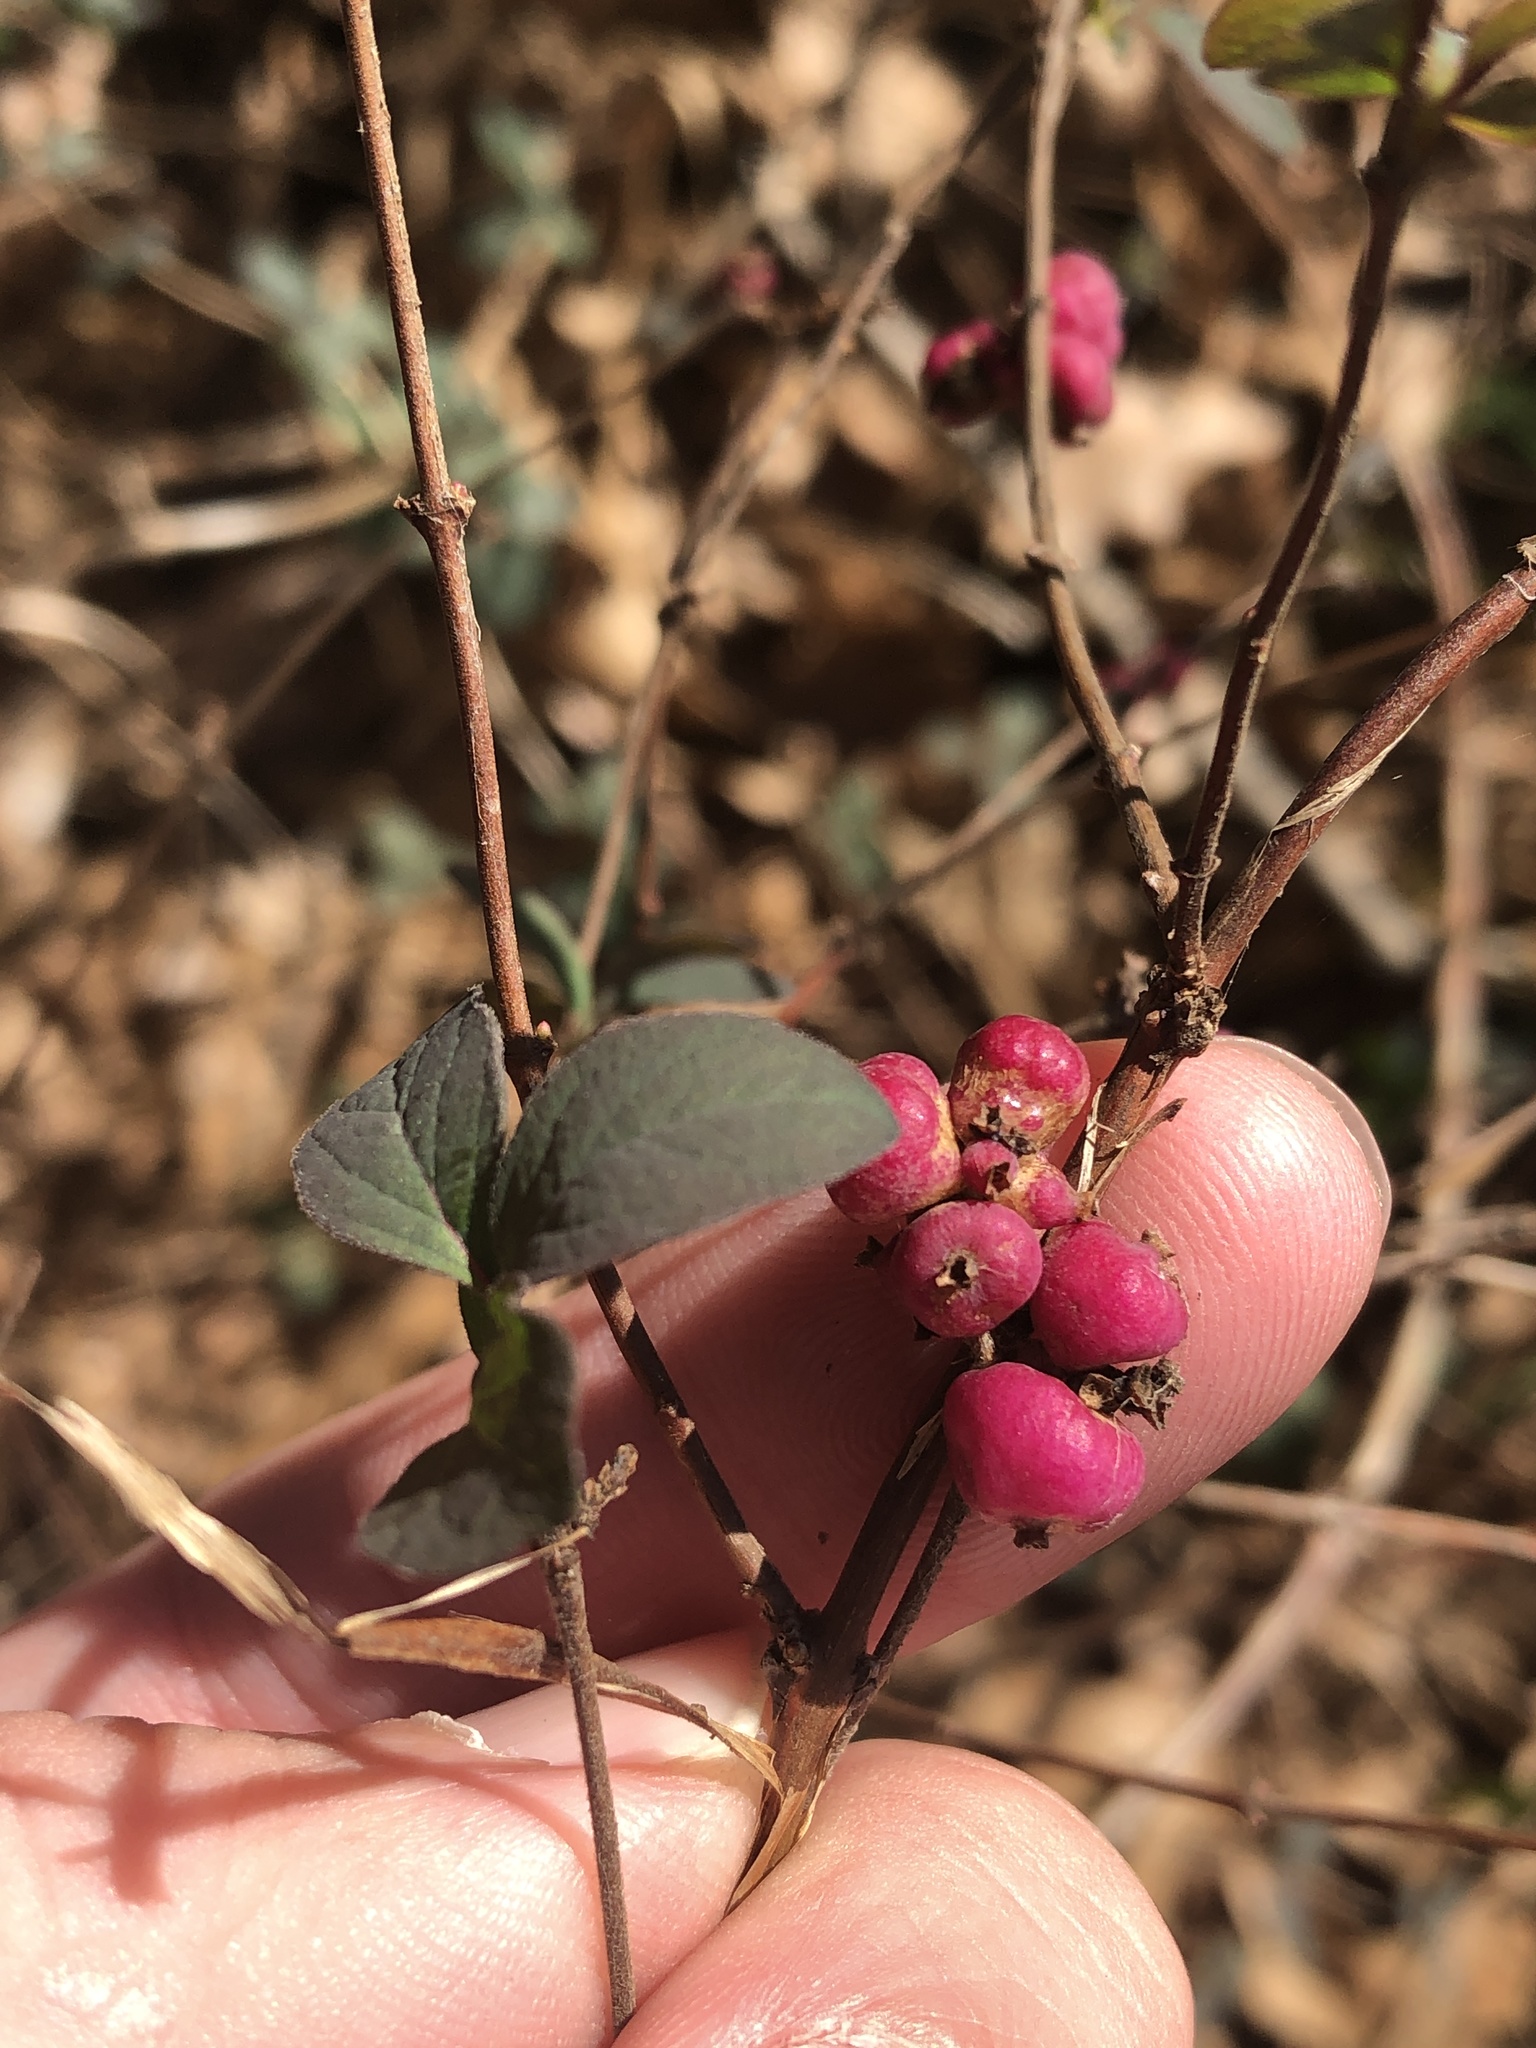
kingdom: Plantae
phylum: Tracheophyta
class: Magnoliopsida
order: Dipsacales
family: Caprifoliaceae
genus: Symphoricarpos
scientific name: Symphoricarpos orbiculatus
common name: Coralberry
